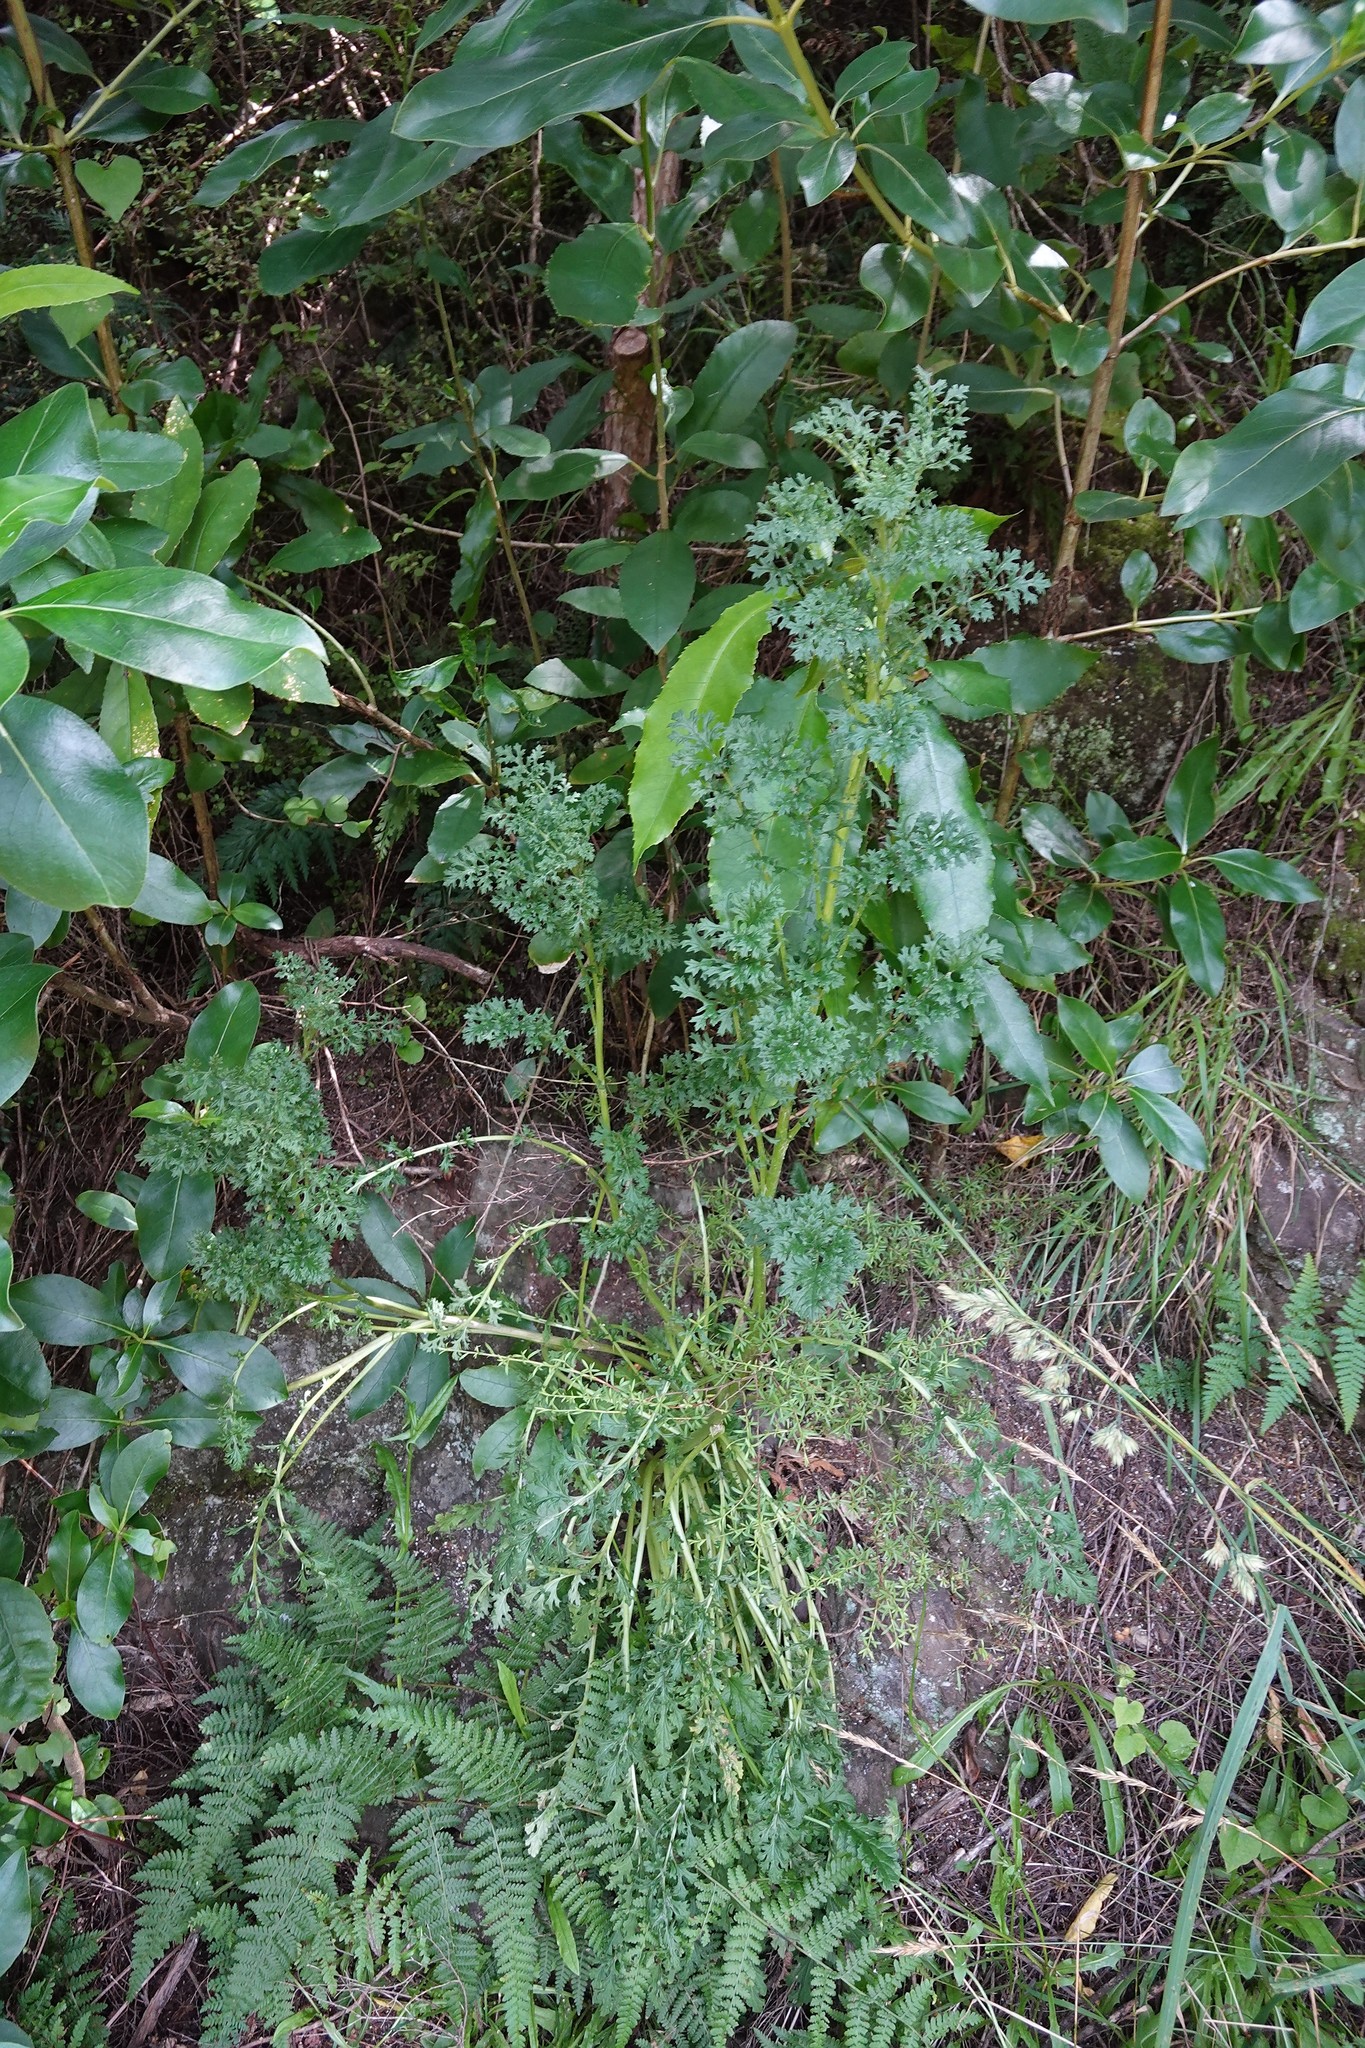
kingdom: Plantae
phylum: Tracheophyta
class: Magnoliopsida
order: Asterales
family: Asteraceae
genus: Jacobaea
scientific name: Jacobaea vulgaris
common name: Stinking willie
